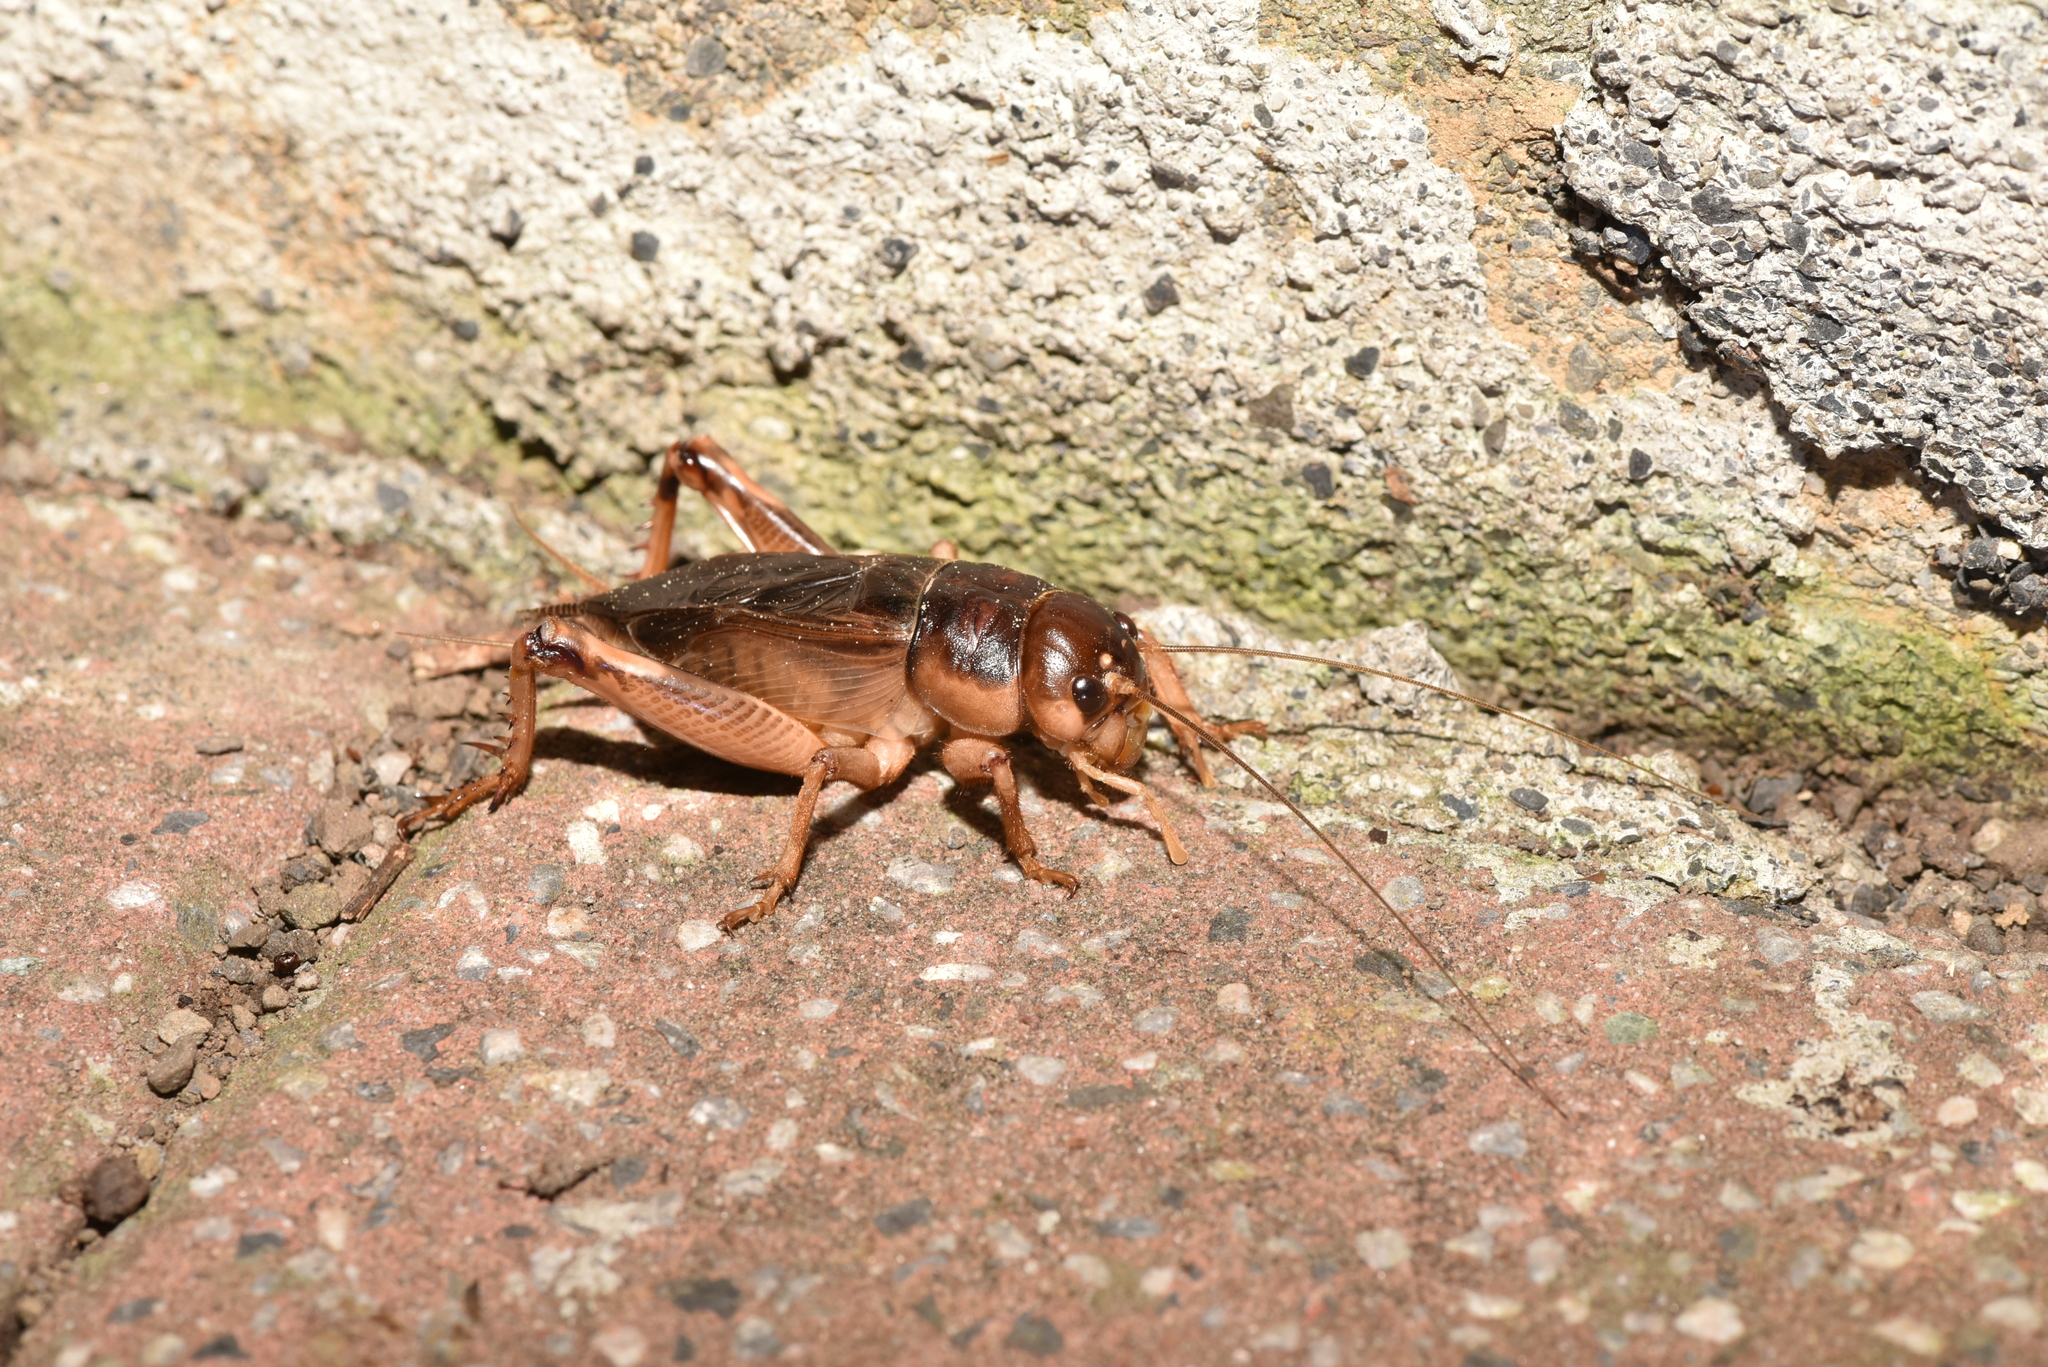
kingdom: Animalia
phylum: Arthropoda
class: Insecta
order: Orthoptera
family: Gryllidae
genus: Tarbinskiellus
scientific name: Tarbinskiellus portentosus
